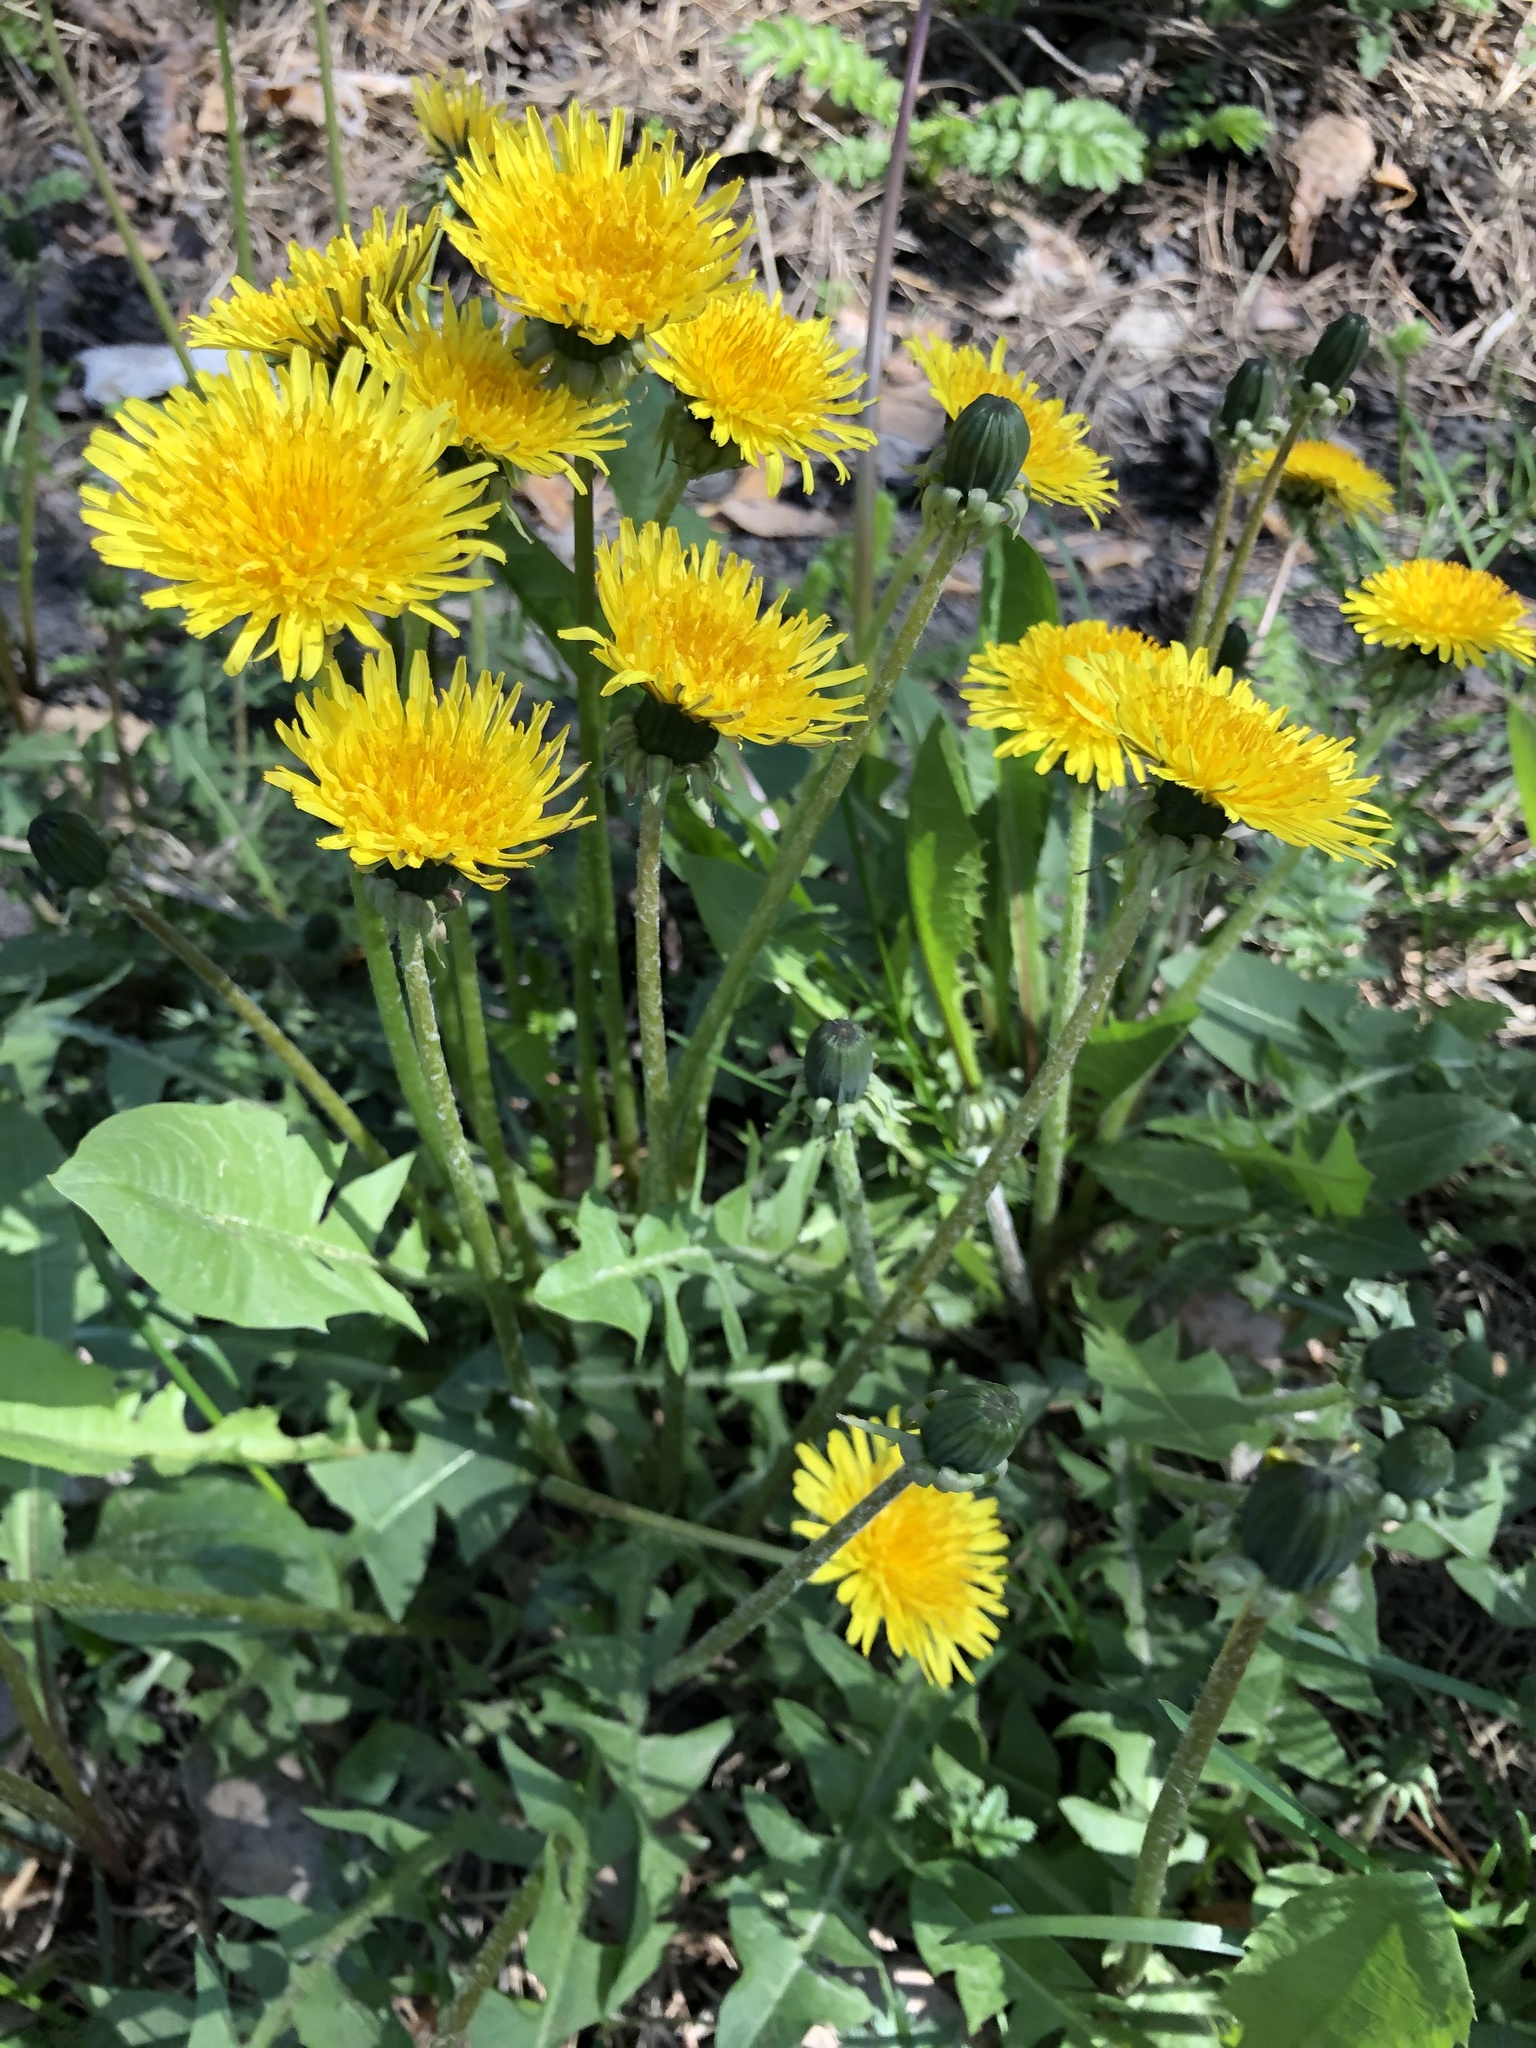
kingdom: Plantae
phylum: Tracheophyta
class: Magnoliopsida
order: Asterales
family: Asteraceae
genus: Taraxacum
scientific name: Taraxacum officinale
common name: Common dandelion
